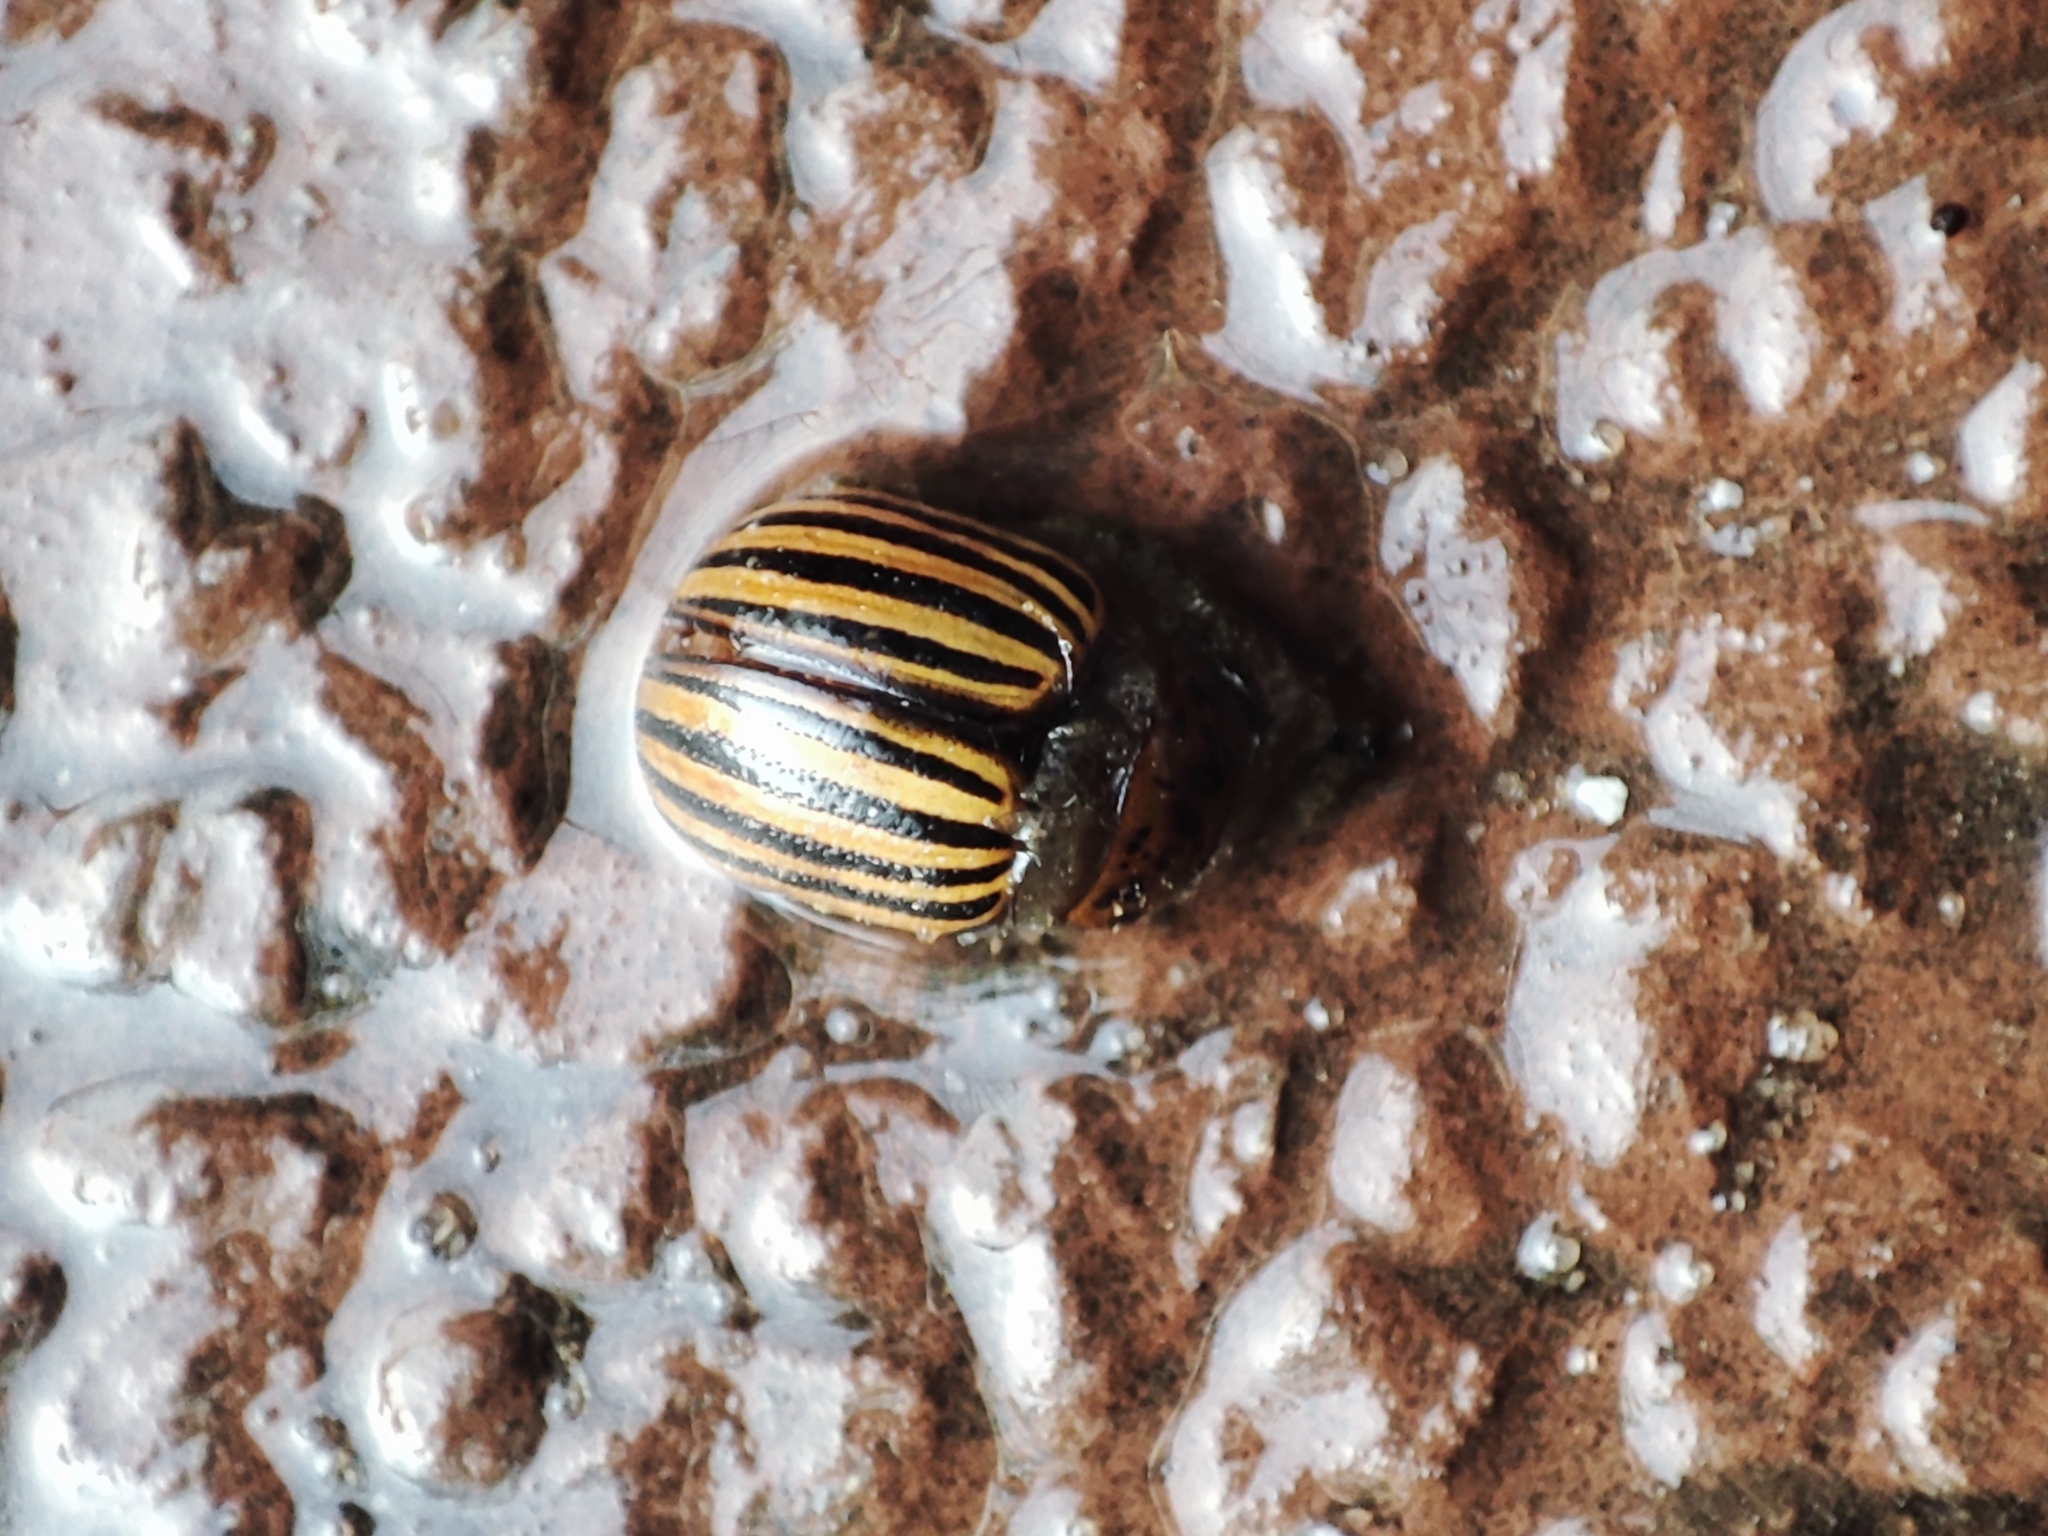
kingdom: Animalia
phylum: Arthropoda
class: Insecta
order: Coleoptera
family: Chrysomelidae
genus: Leptinotarsa
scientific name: Leptinotarsa decemlineata
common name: Colorado potato beetle
